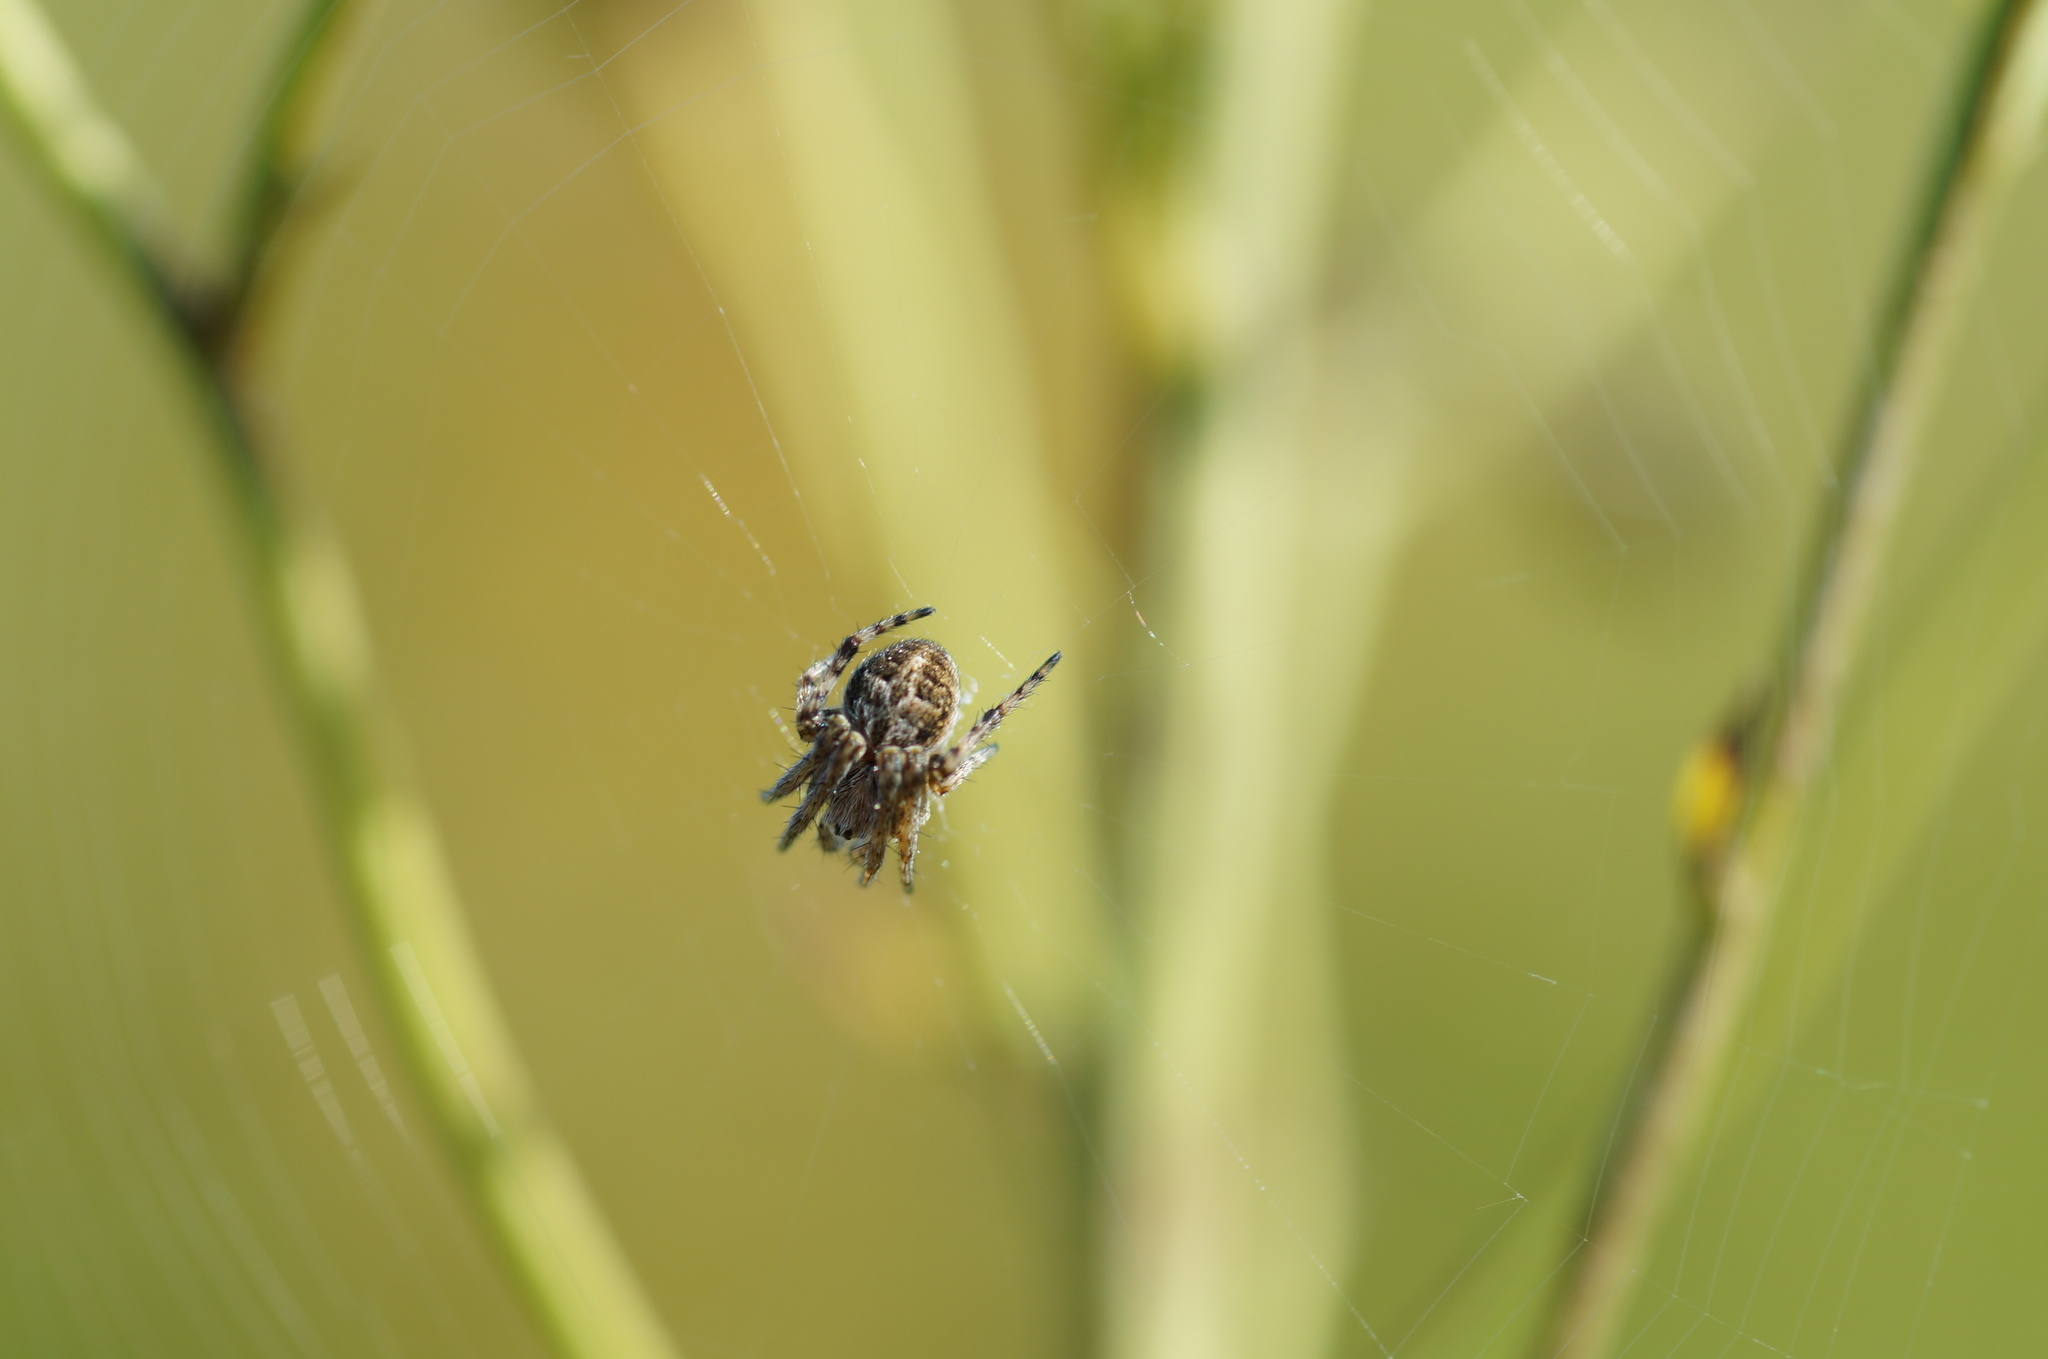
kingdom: Animalia
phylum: Arthropoda
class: Arachnida
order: Araneae
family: Araneidae
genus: Agalenatea
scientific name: Agalenatea redii
